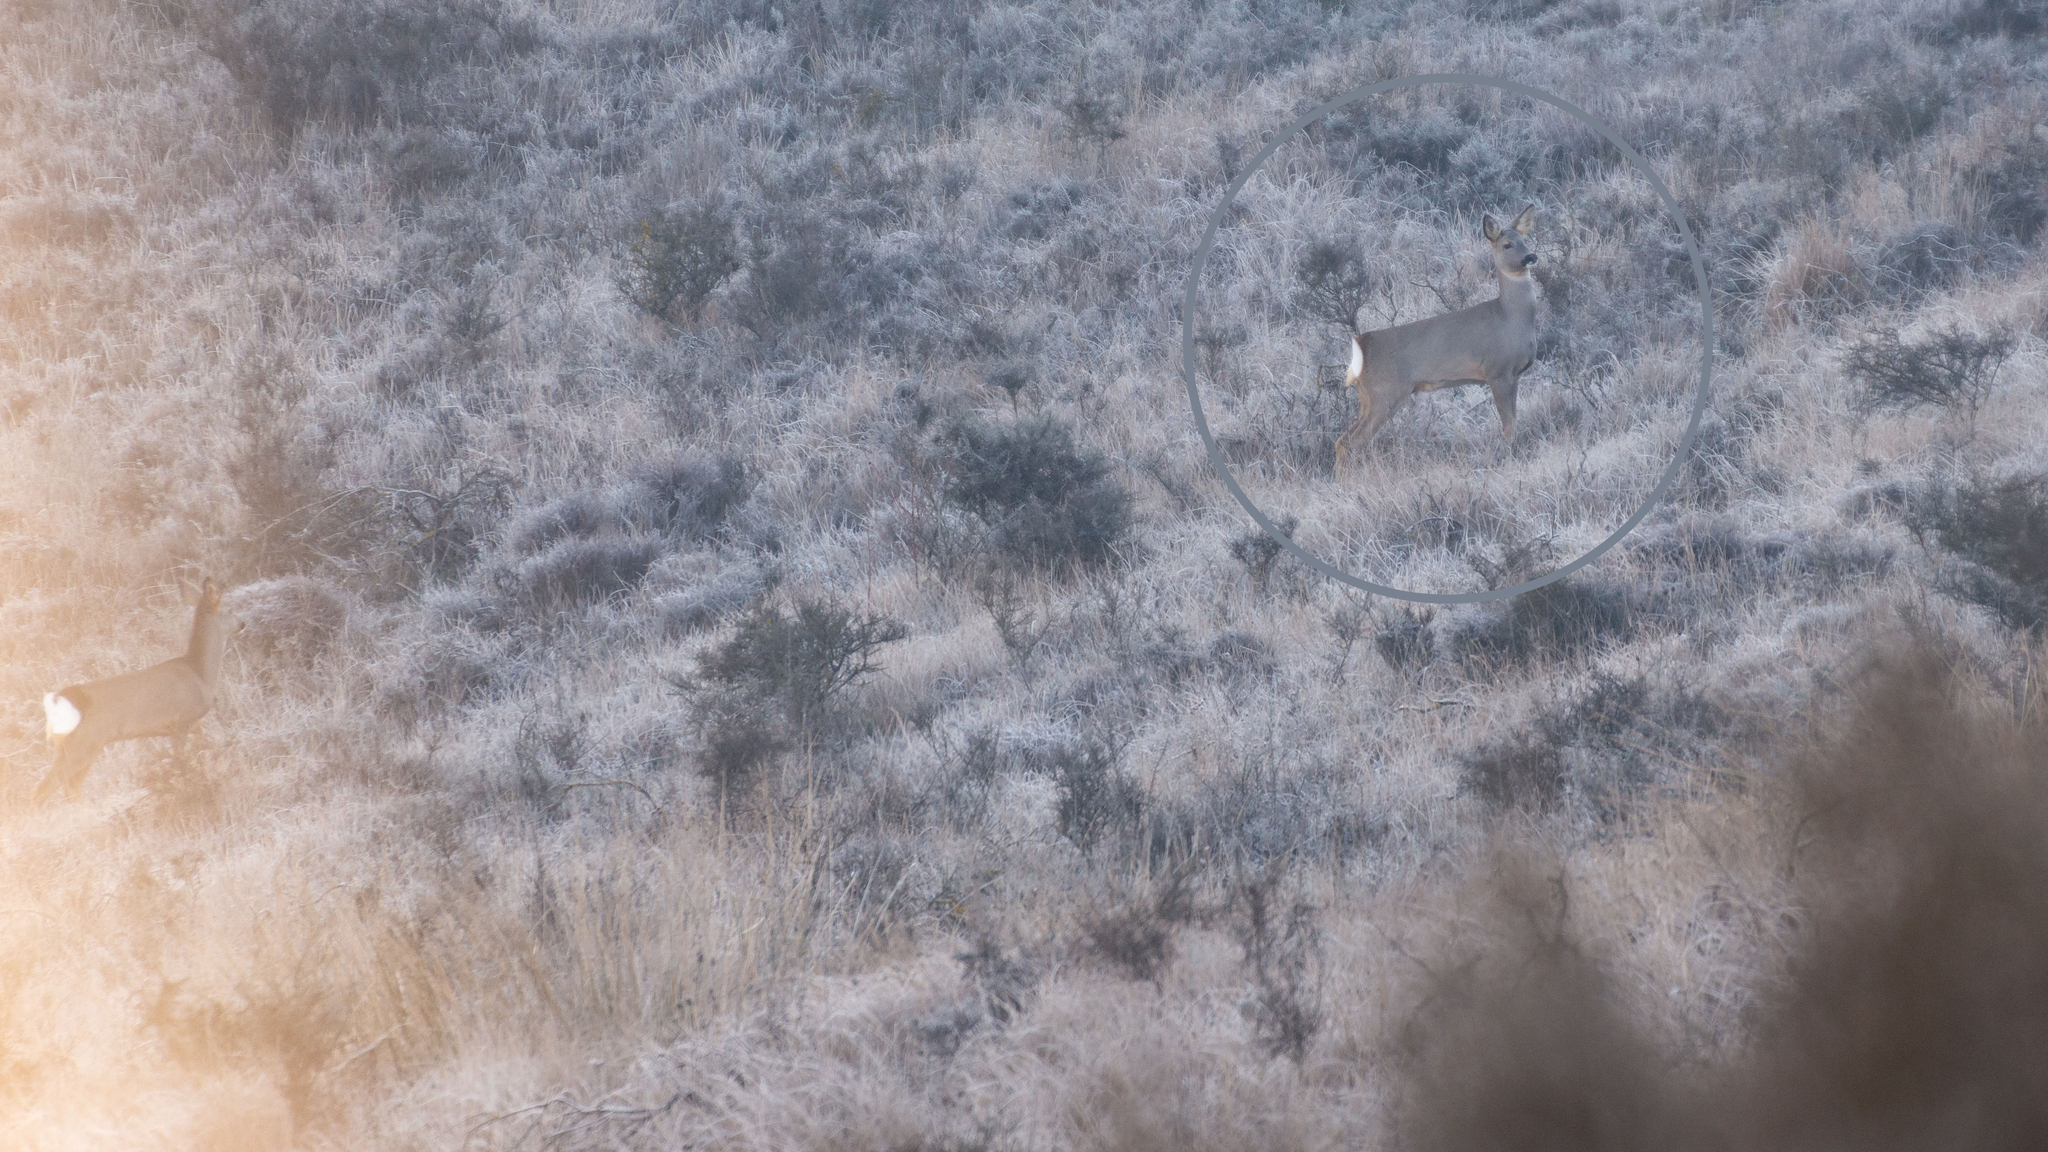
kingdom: Animalia
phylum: Chordata
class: Mammalia
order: Artiodactyla
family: Cervidae
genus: Capreolus
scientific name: Capreolus capreolus
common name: Western roe deer
